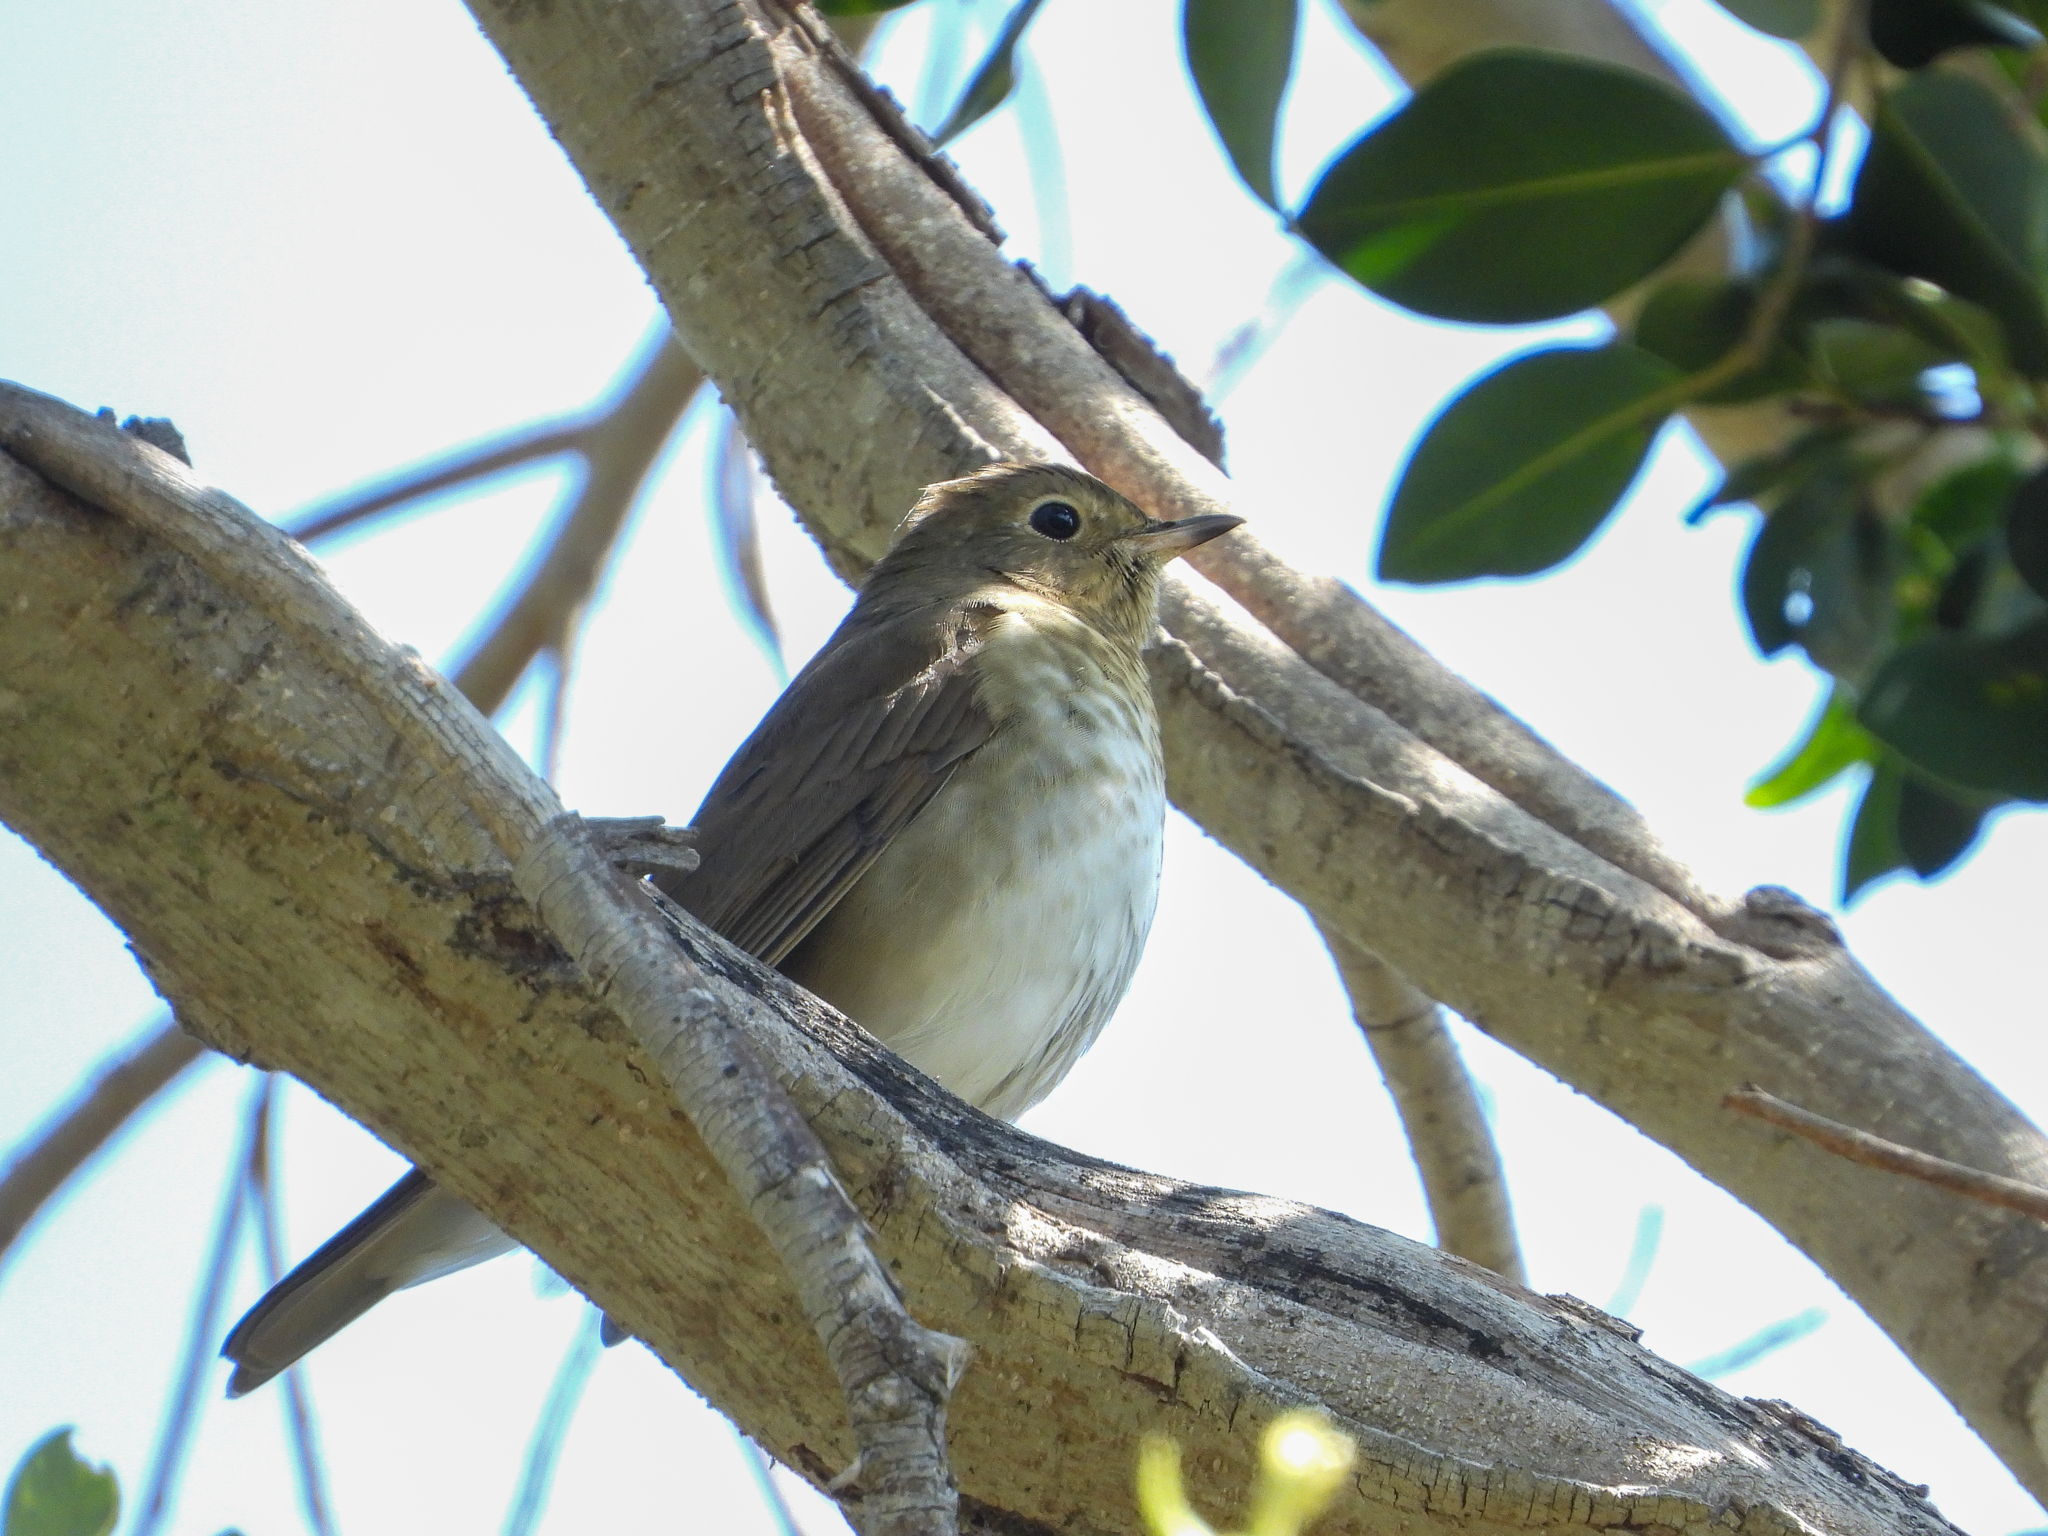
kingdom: Animalia
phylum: Chordata
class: Aves
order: Passeriformes
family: Turdidae
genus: Catharus
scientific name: Catharus ustulatus
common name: Swainson's thrush
